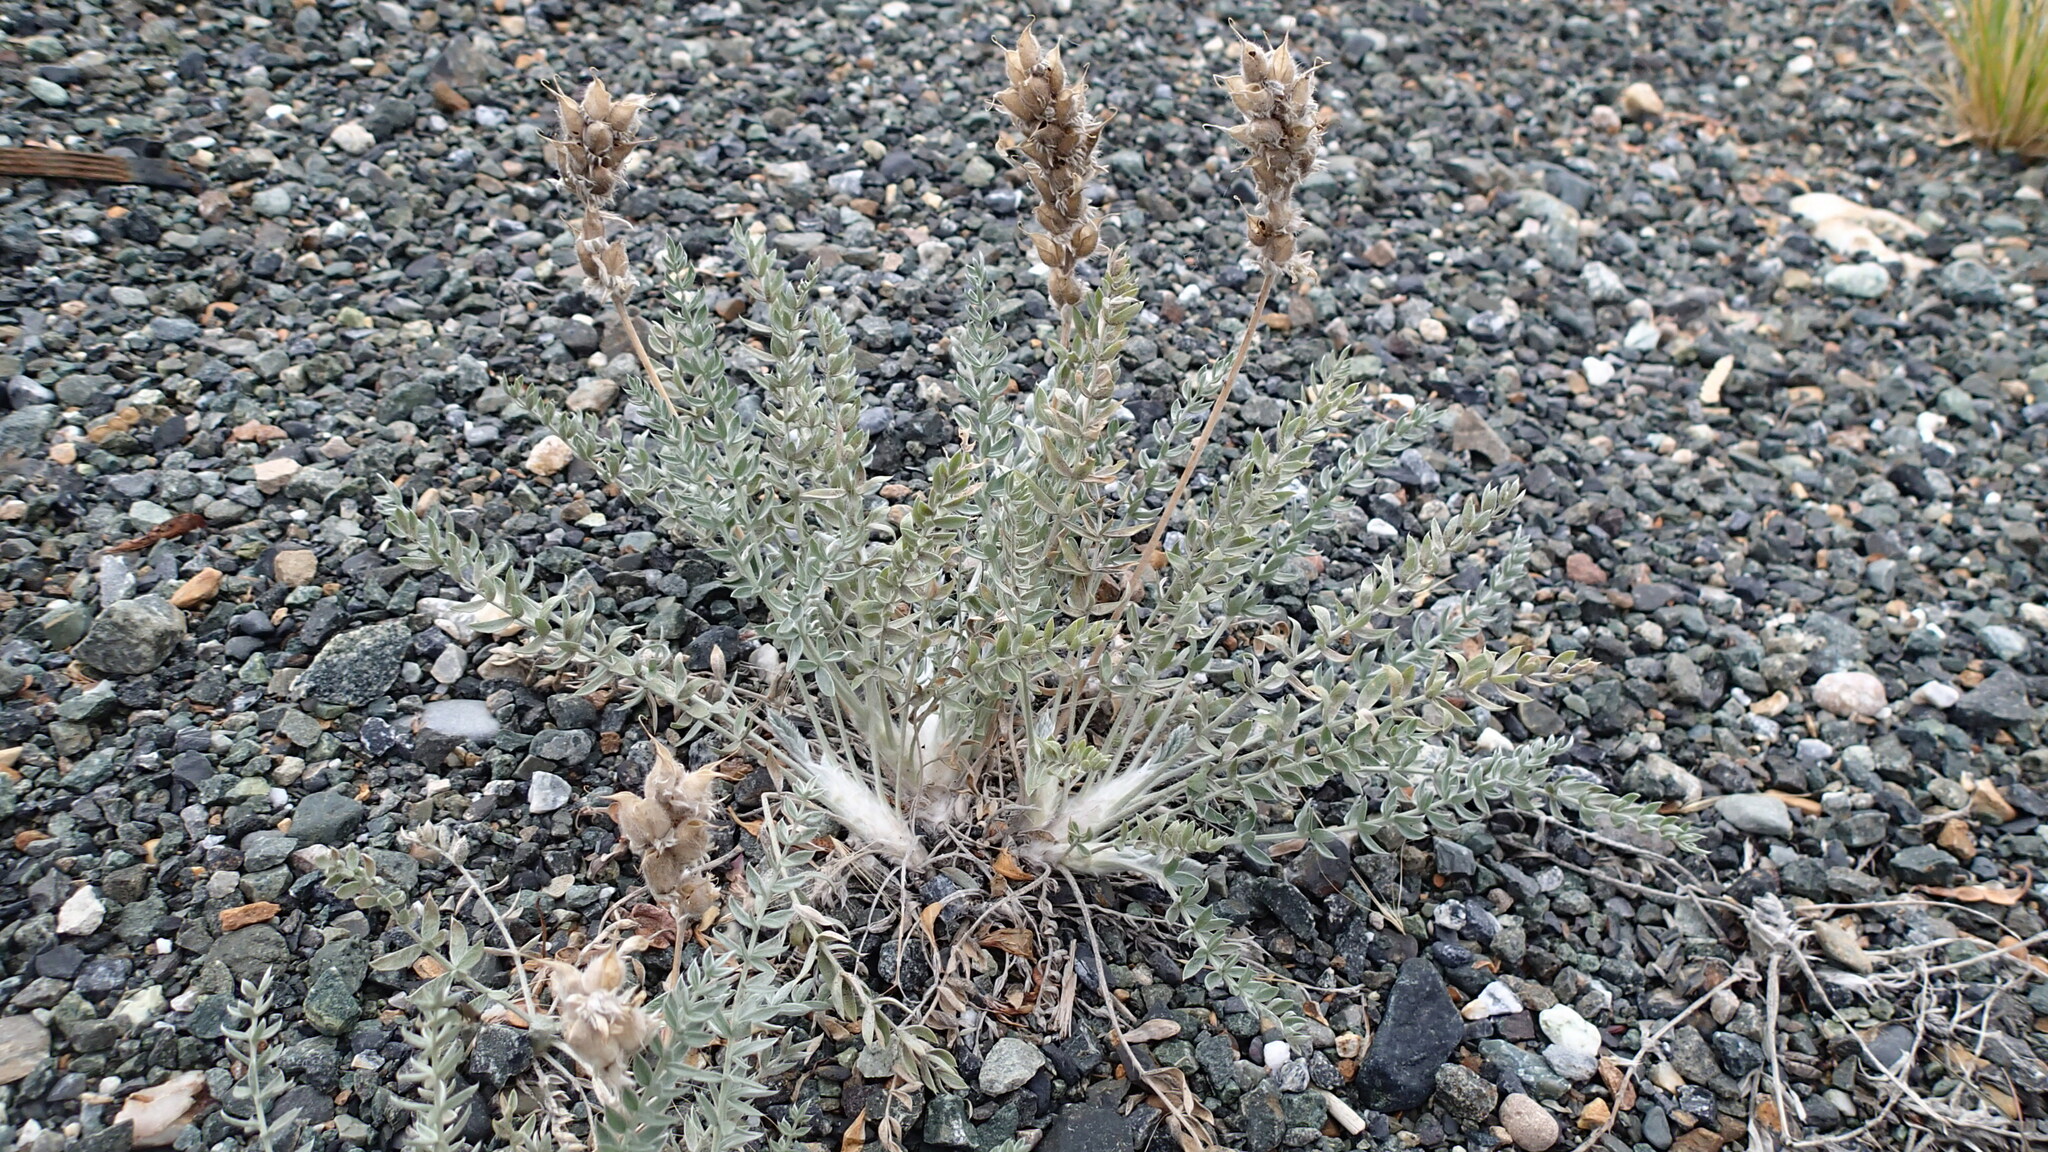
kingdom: Plantae
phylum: Tracheophyta
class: Magnoliopsida
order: Fabales
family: Fabaceae
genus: Oxytropis
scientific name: Oxytropis splendens
